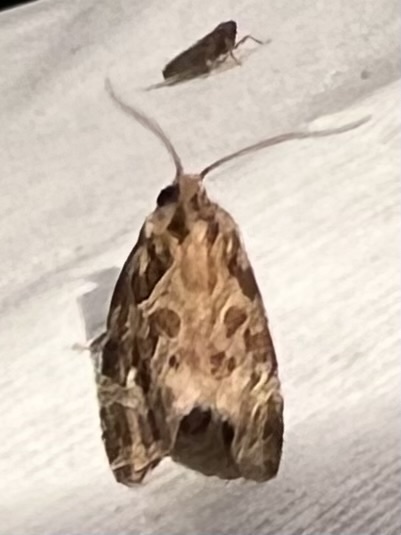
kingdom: Animalia
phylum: Arthropoda
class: Insecta
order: Lepidoptera
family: Tortricidae
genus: Phaecasiophora
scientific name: Phaecasiophora confixana
